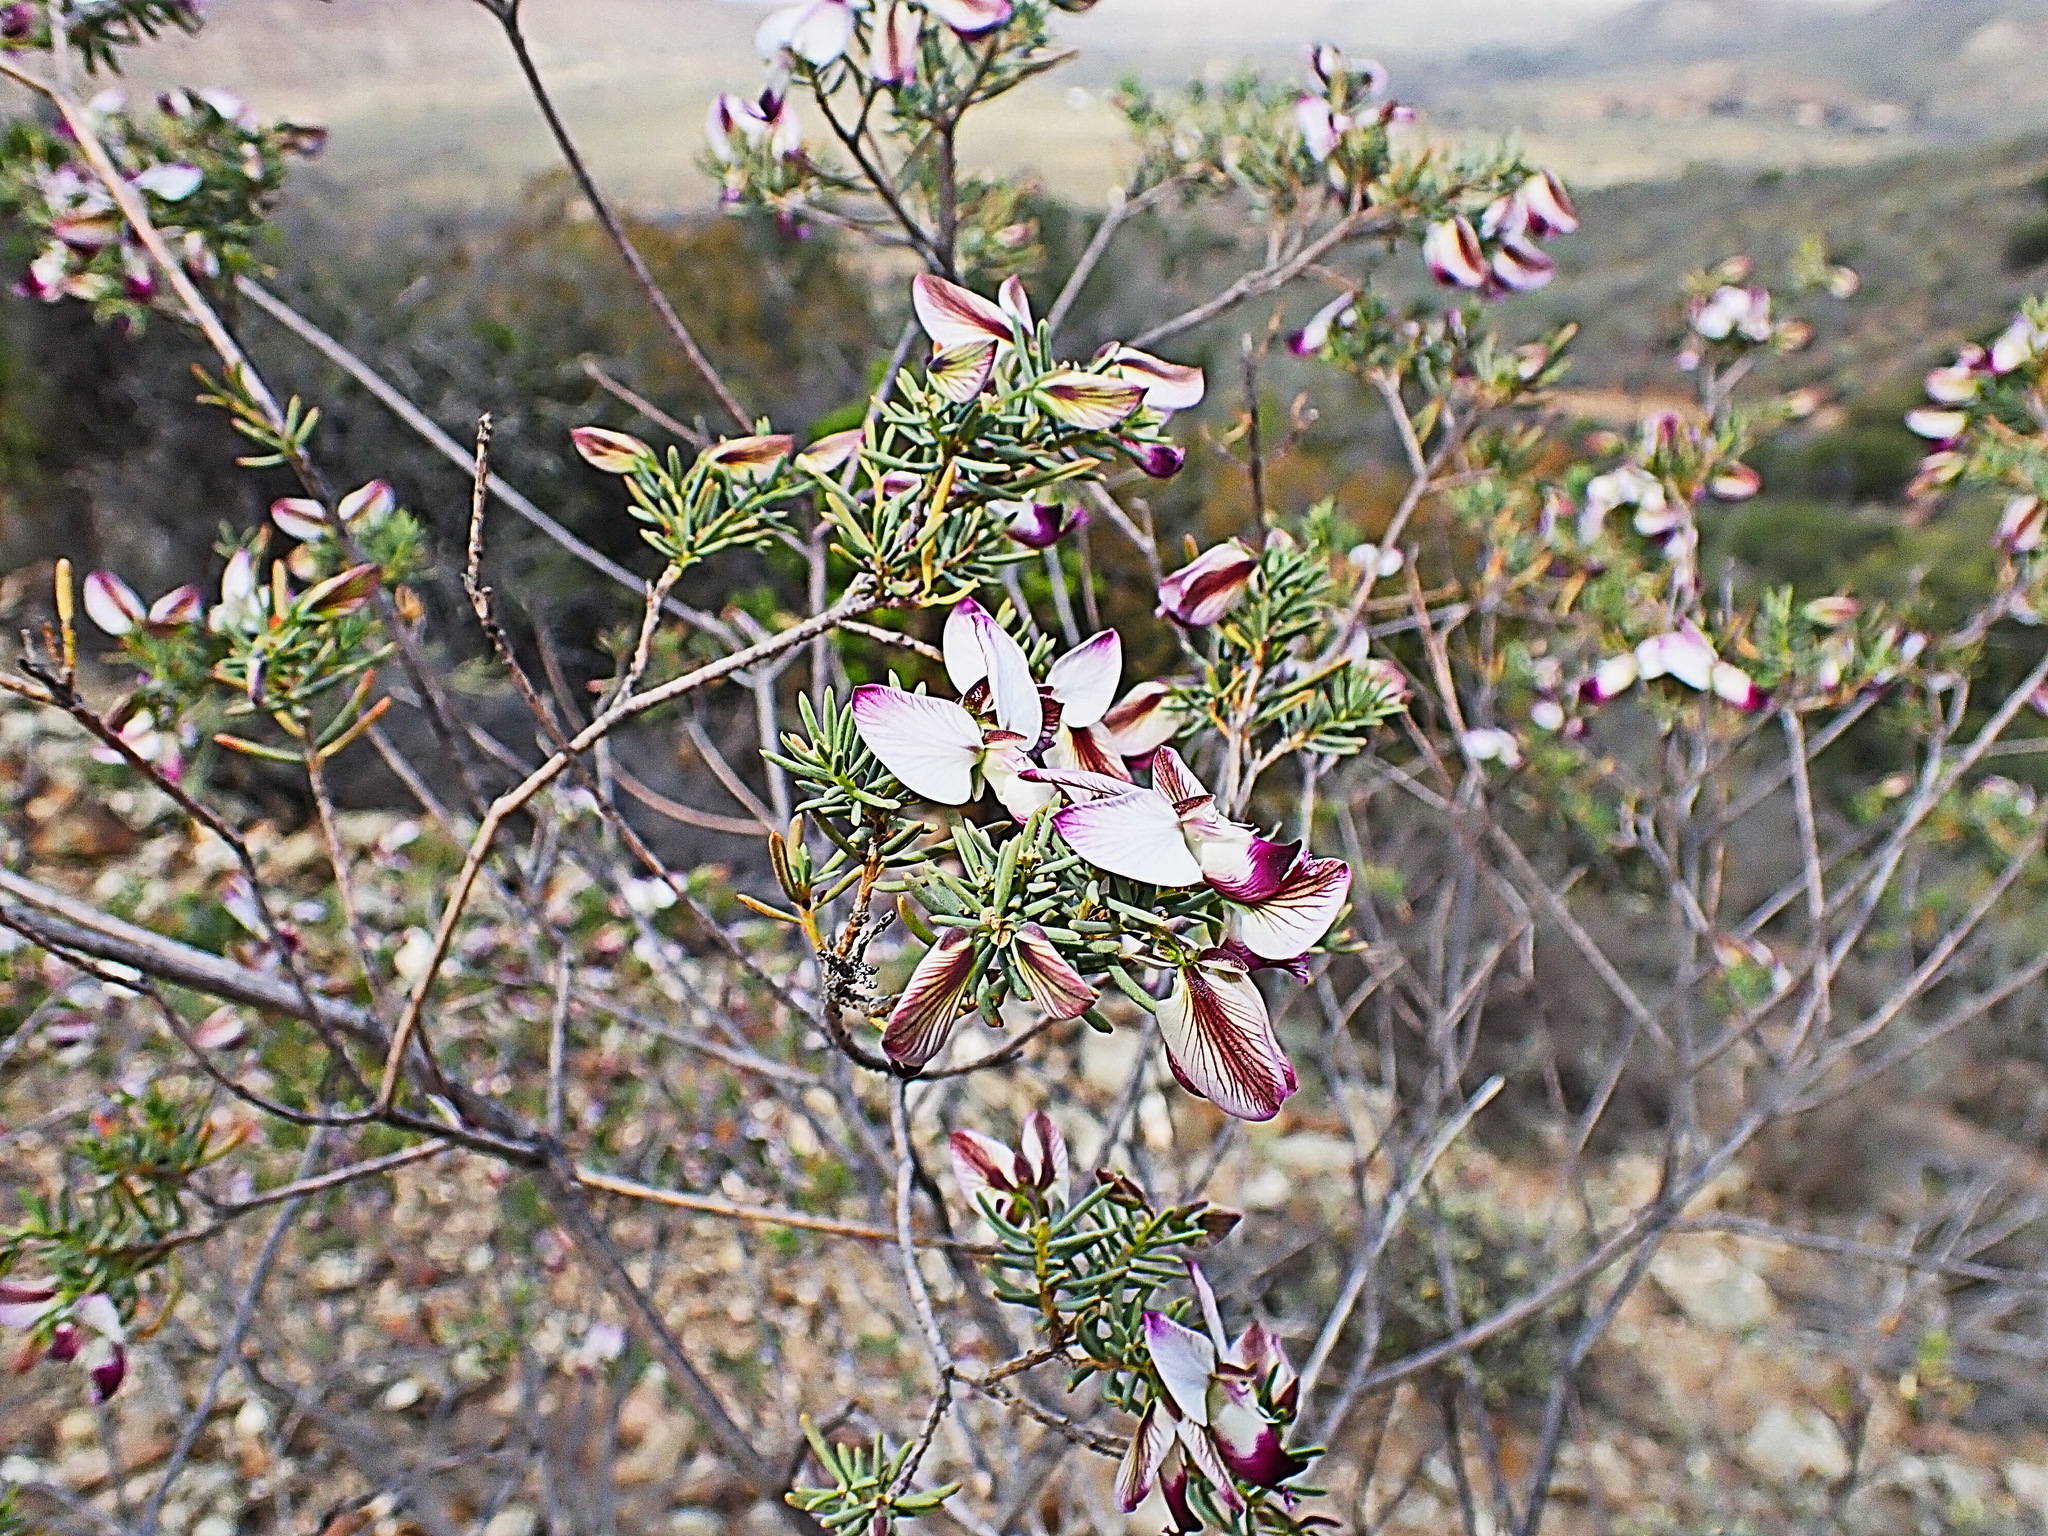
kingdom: Plantae
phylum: Tracheophyta
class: Magnoliopsida
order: Fabales
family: Polygalaceae
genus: Polygala
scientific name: Polygala myrtifolia
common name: Myrtle-leaf milkwort
